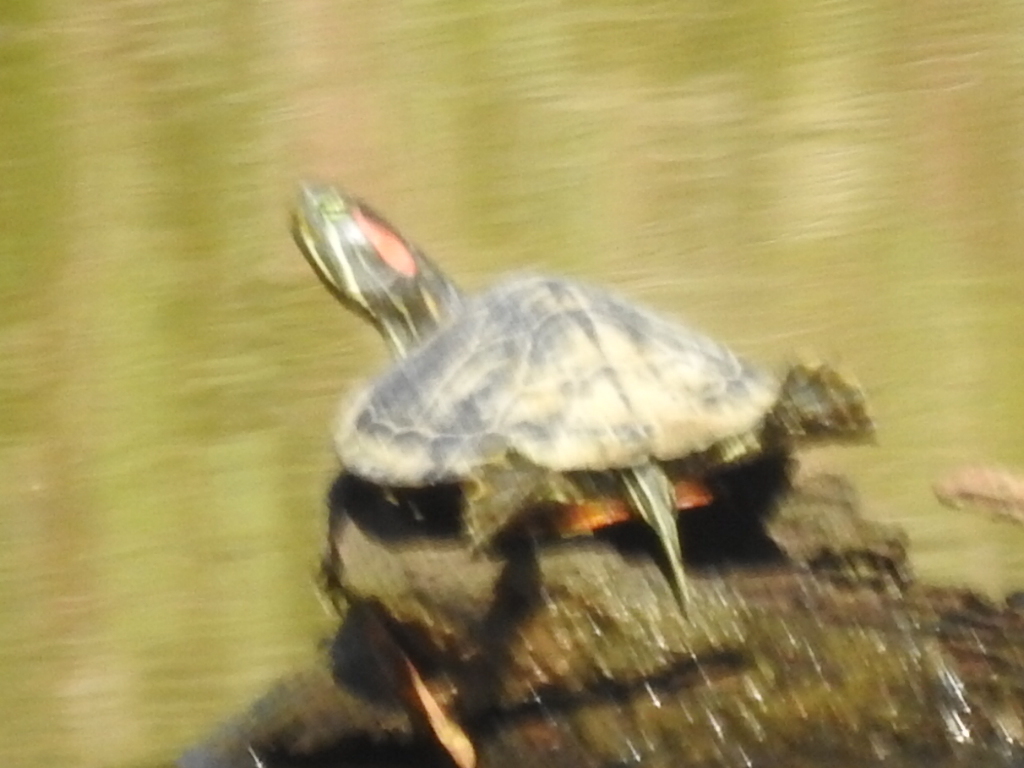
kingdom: Animalia
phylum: Chordata
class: Testudines
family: Emydidae
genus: Trachemys
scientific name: Trachemys scripta
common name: Slider
